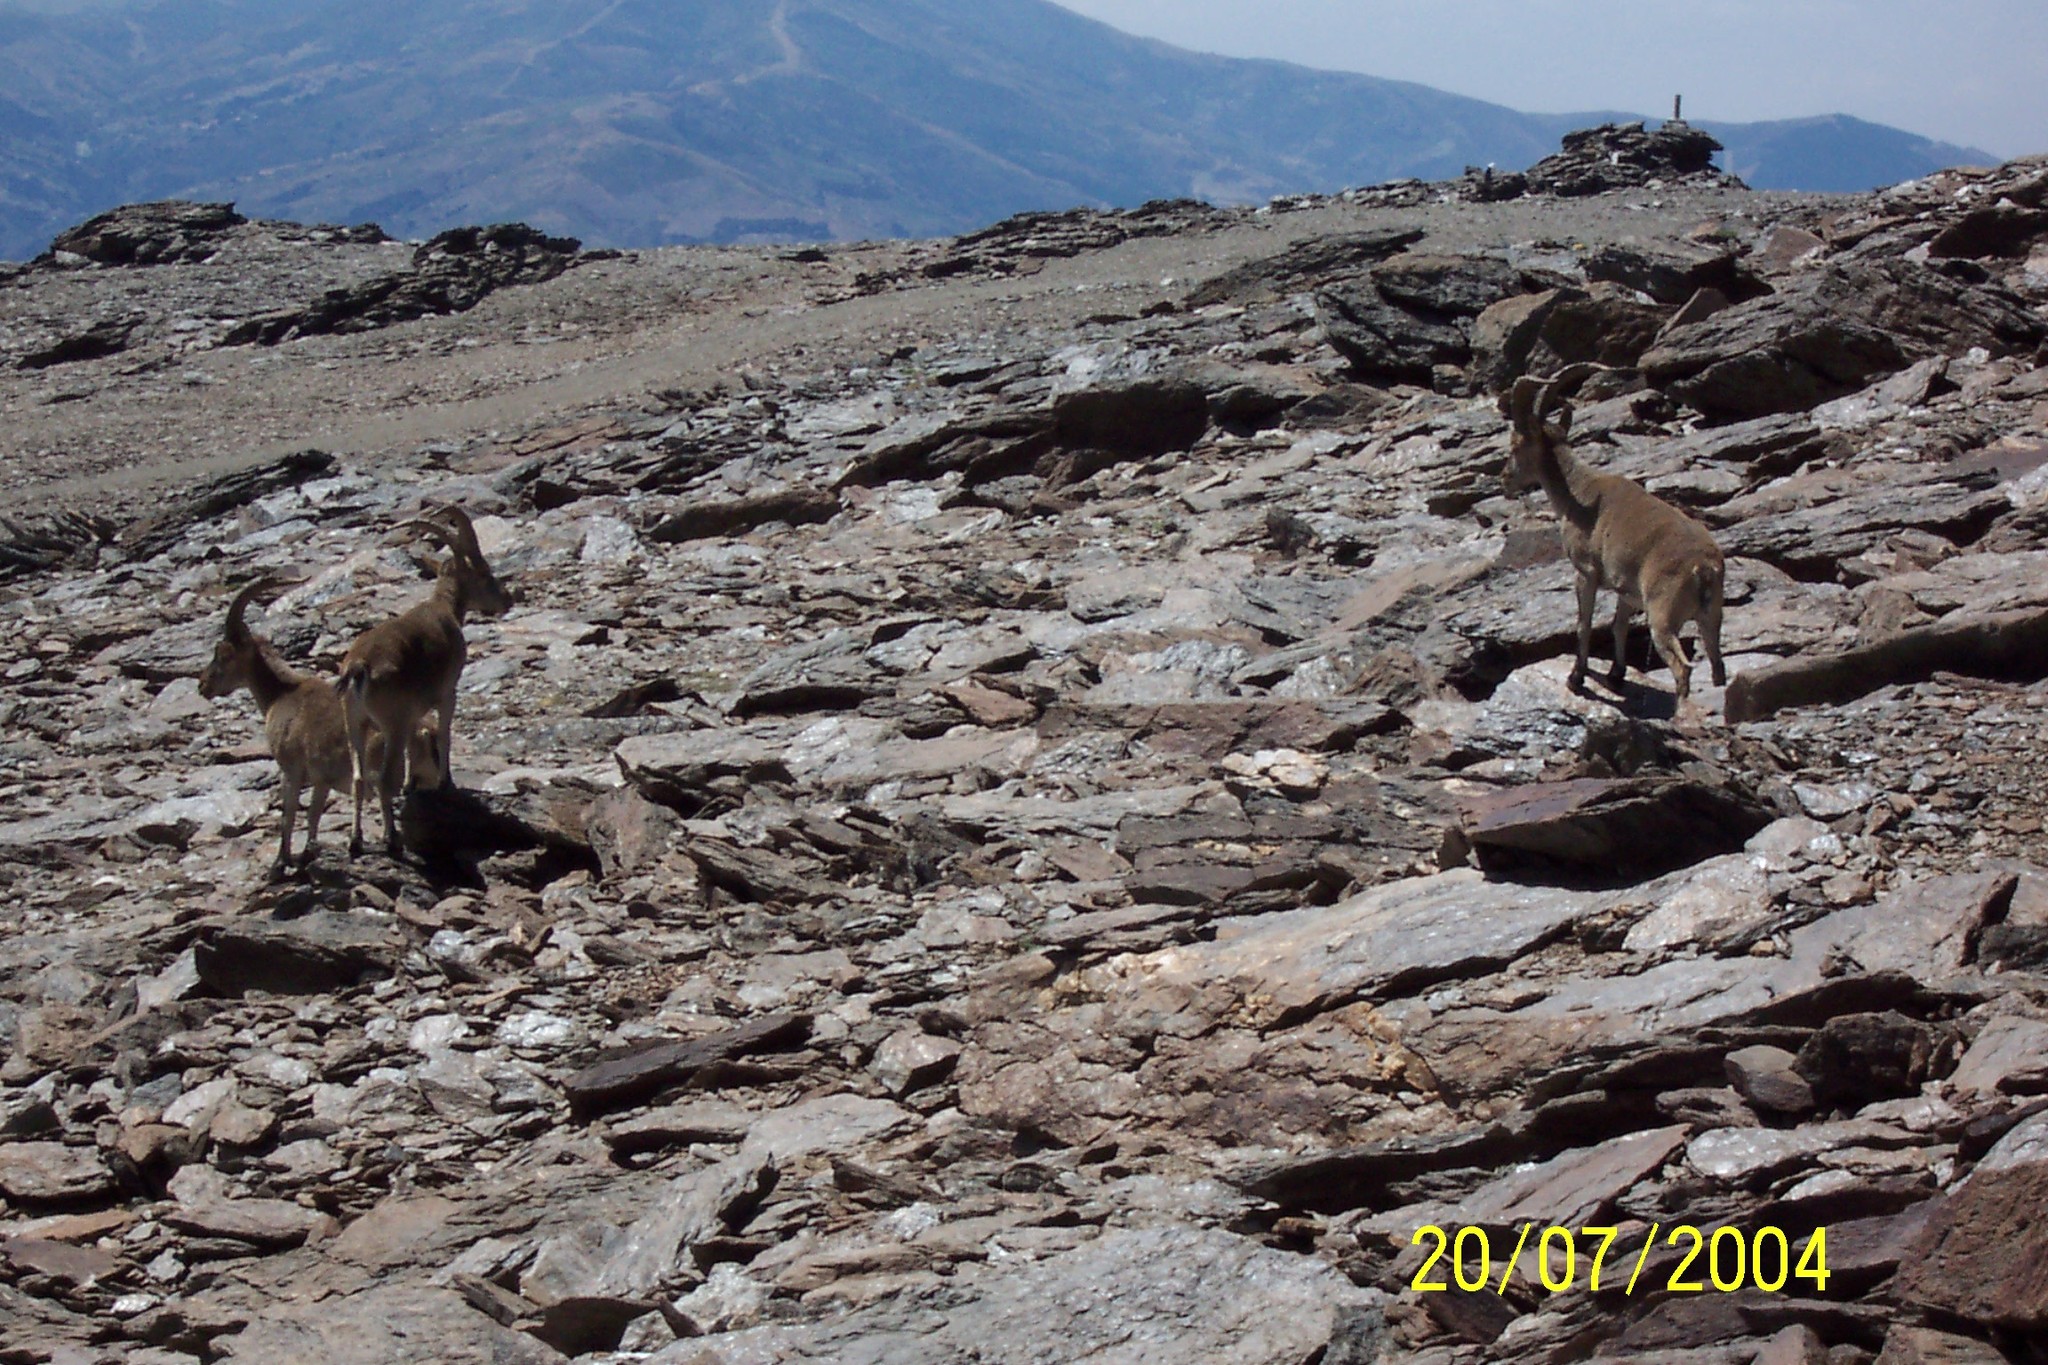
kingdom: Animalia
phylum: Chordata
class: Mammalia
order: Artiodactyla
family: Bovidae
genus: Capra
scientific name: Capra pyrenaica
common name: Spanish ibex
